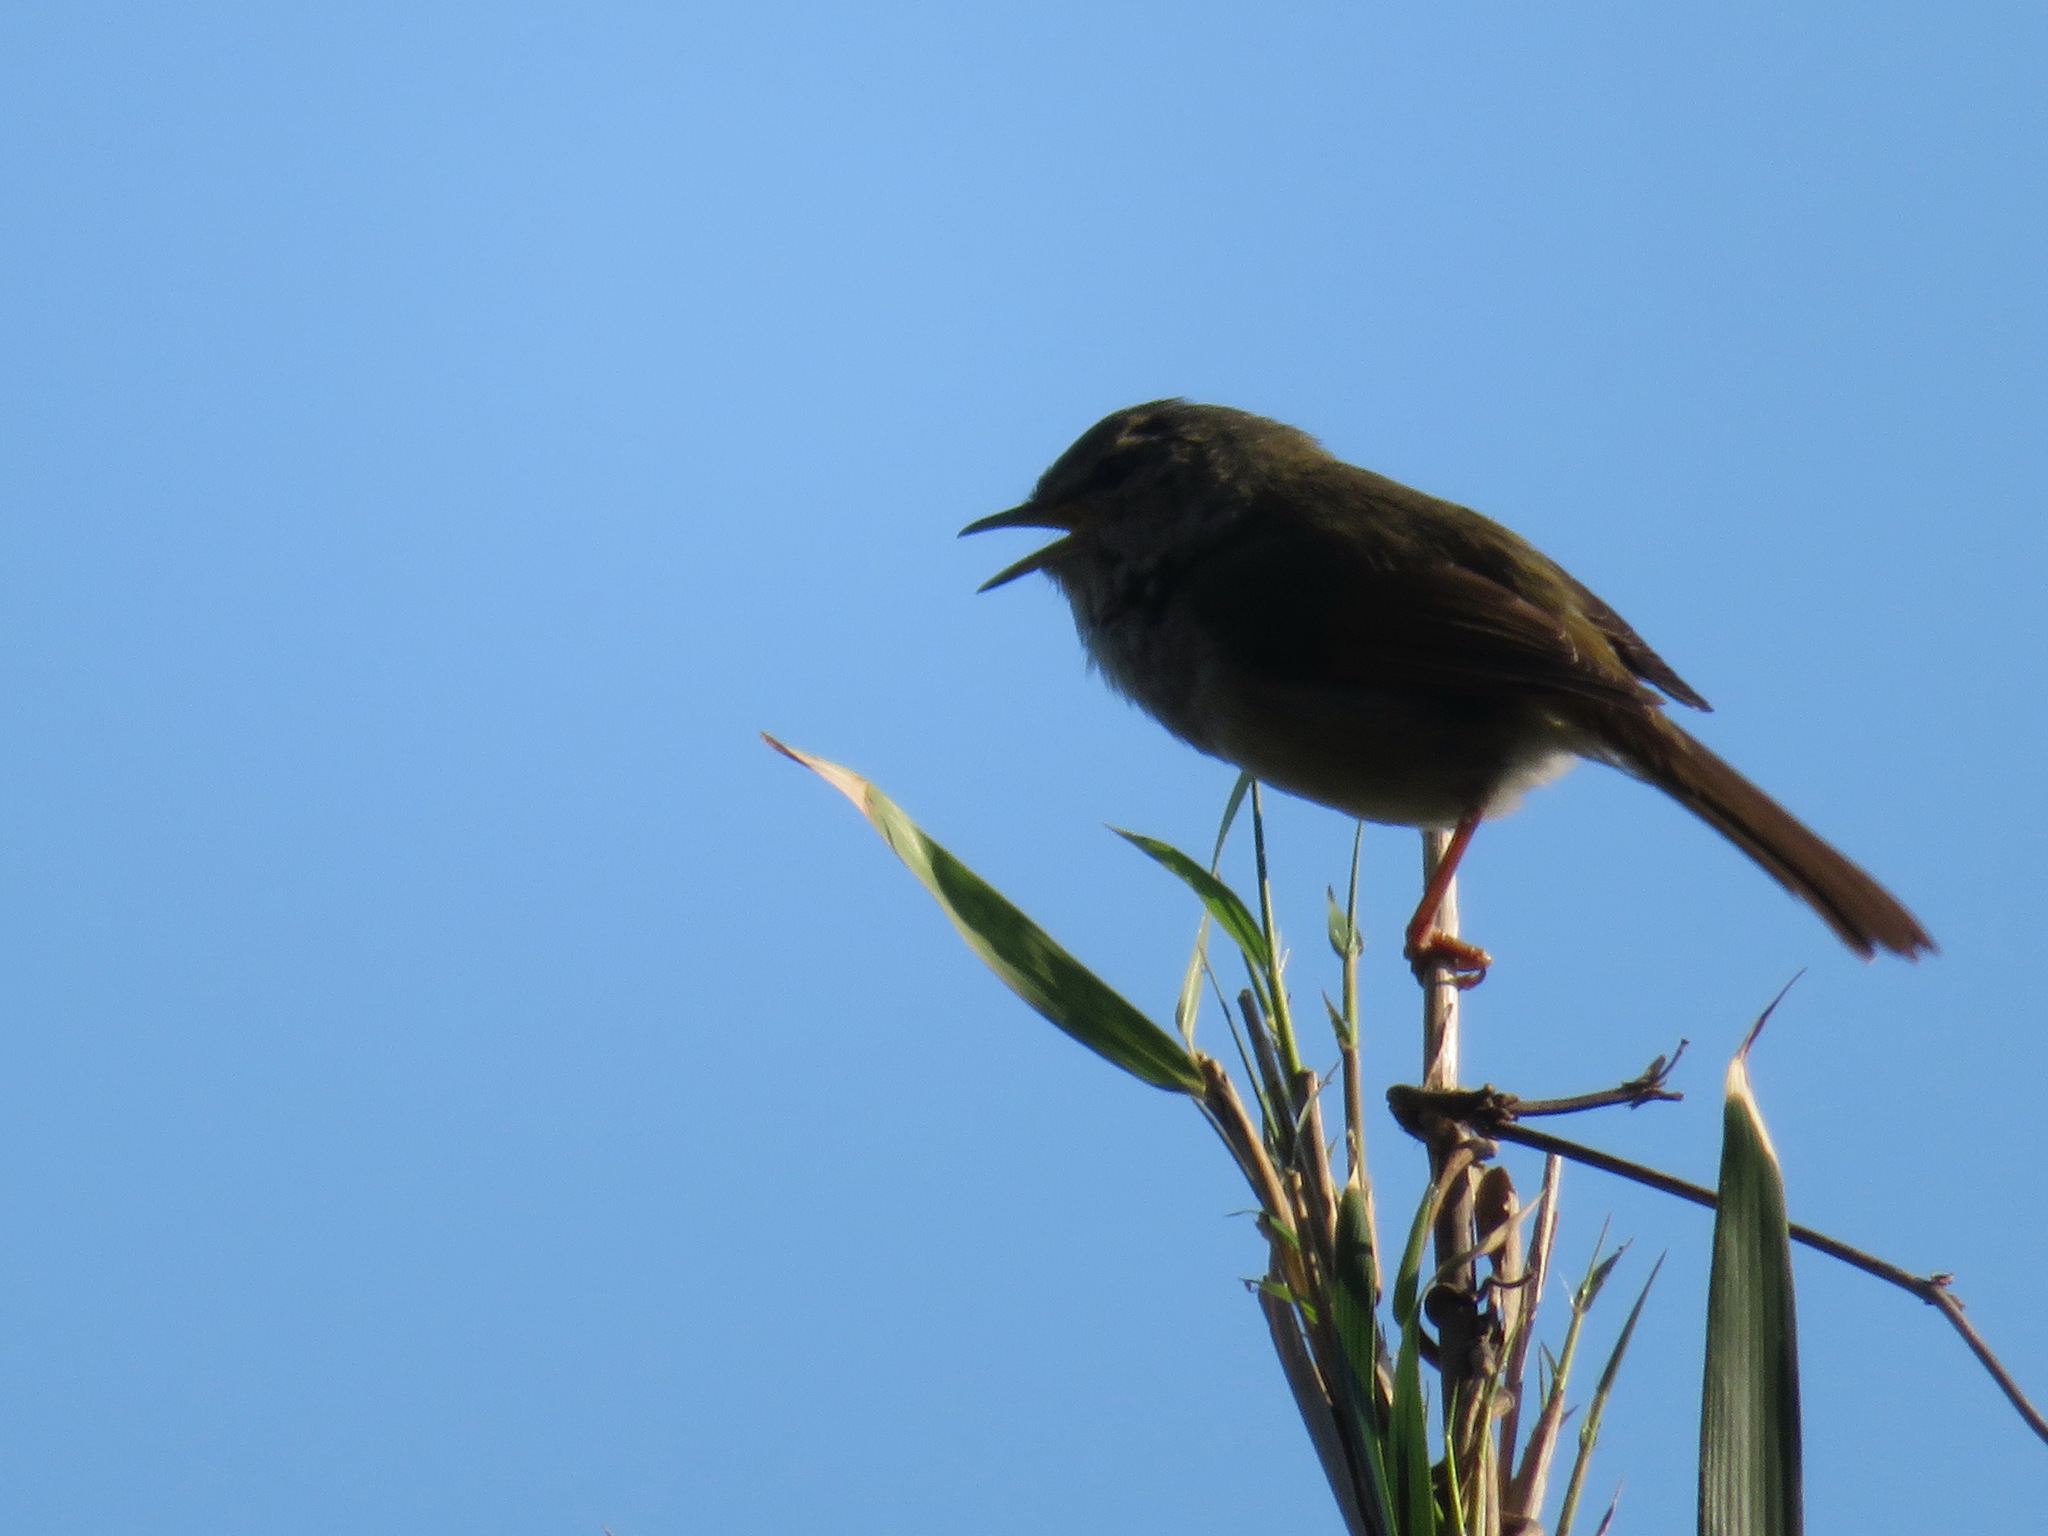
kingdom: Animalia
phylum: Chordata
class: Aves
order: Passeriformes
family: Cettiidae
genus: Horornis
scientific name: Horornis diphone
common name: Japanese bush warbler
